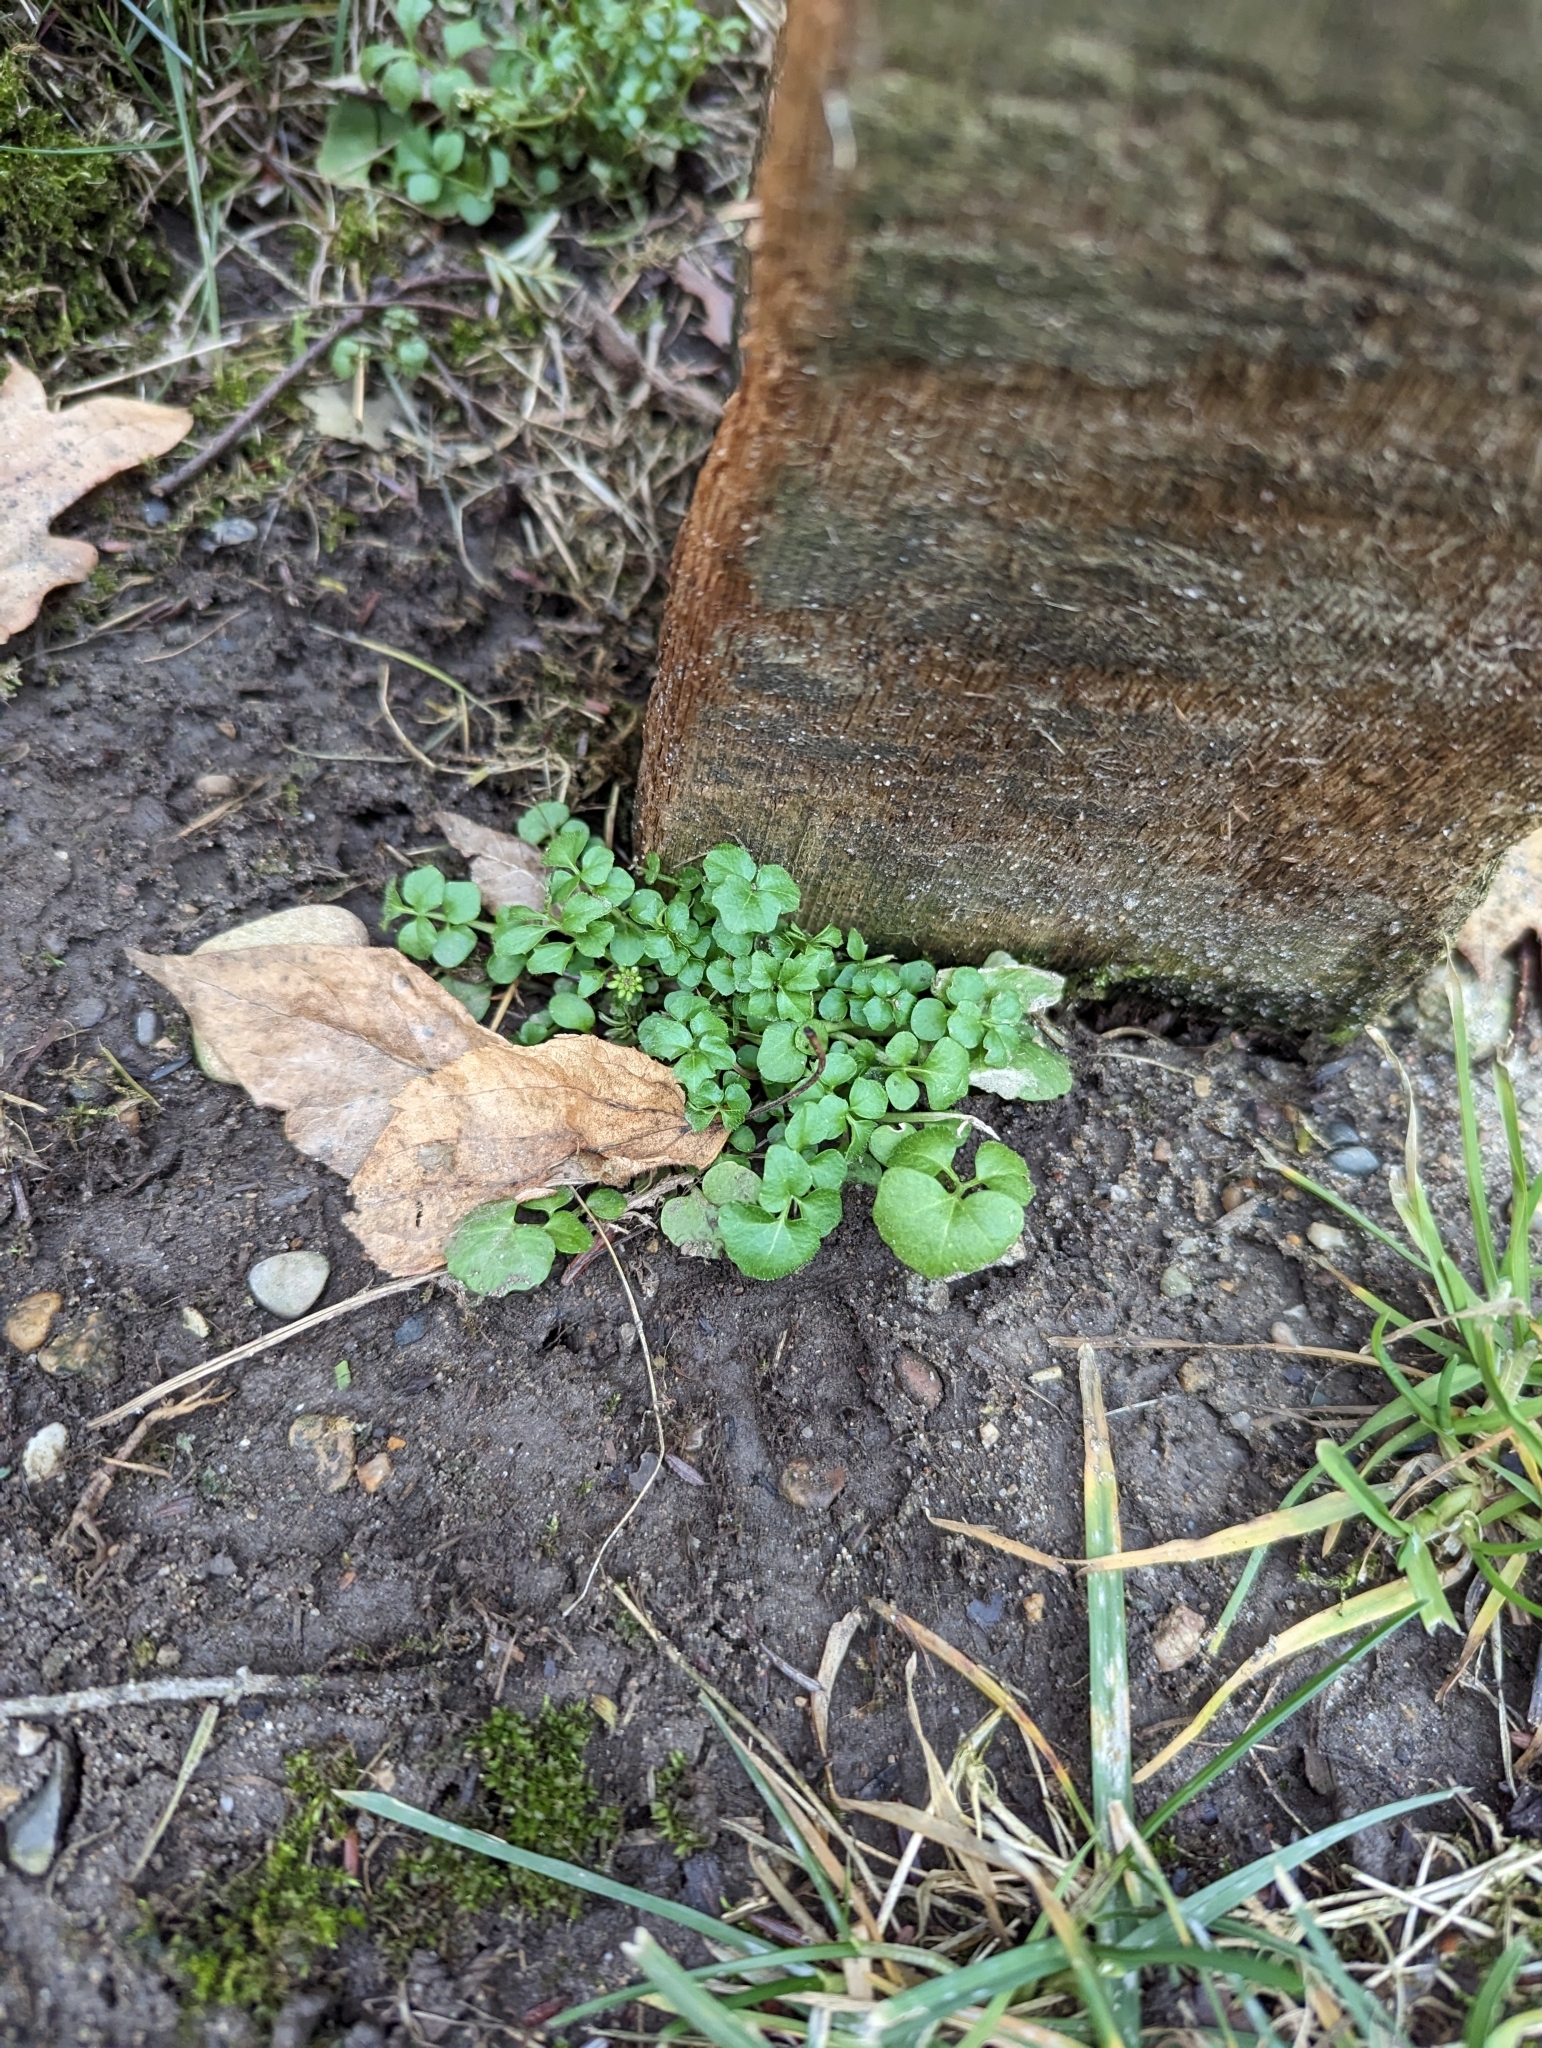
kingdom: Plantae
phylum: Tracheophyta
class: Magnoliopsida
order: Brassicales
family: Brassicaceae
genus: Cardamine
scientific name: Cardamine hirsuta
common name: Hairy bittercress
